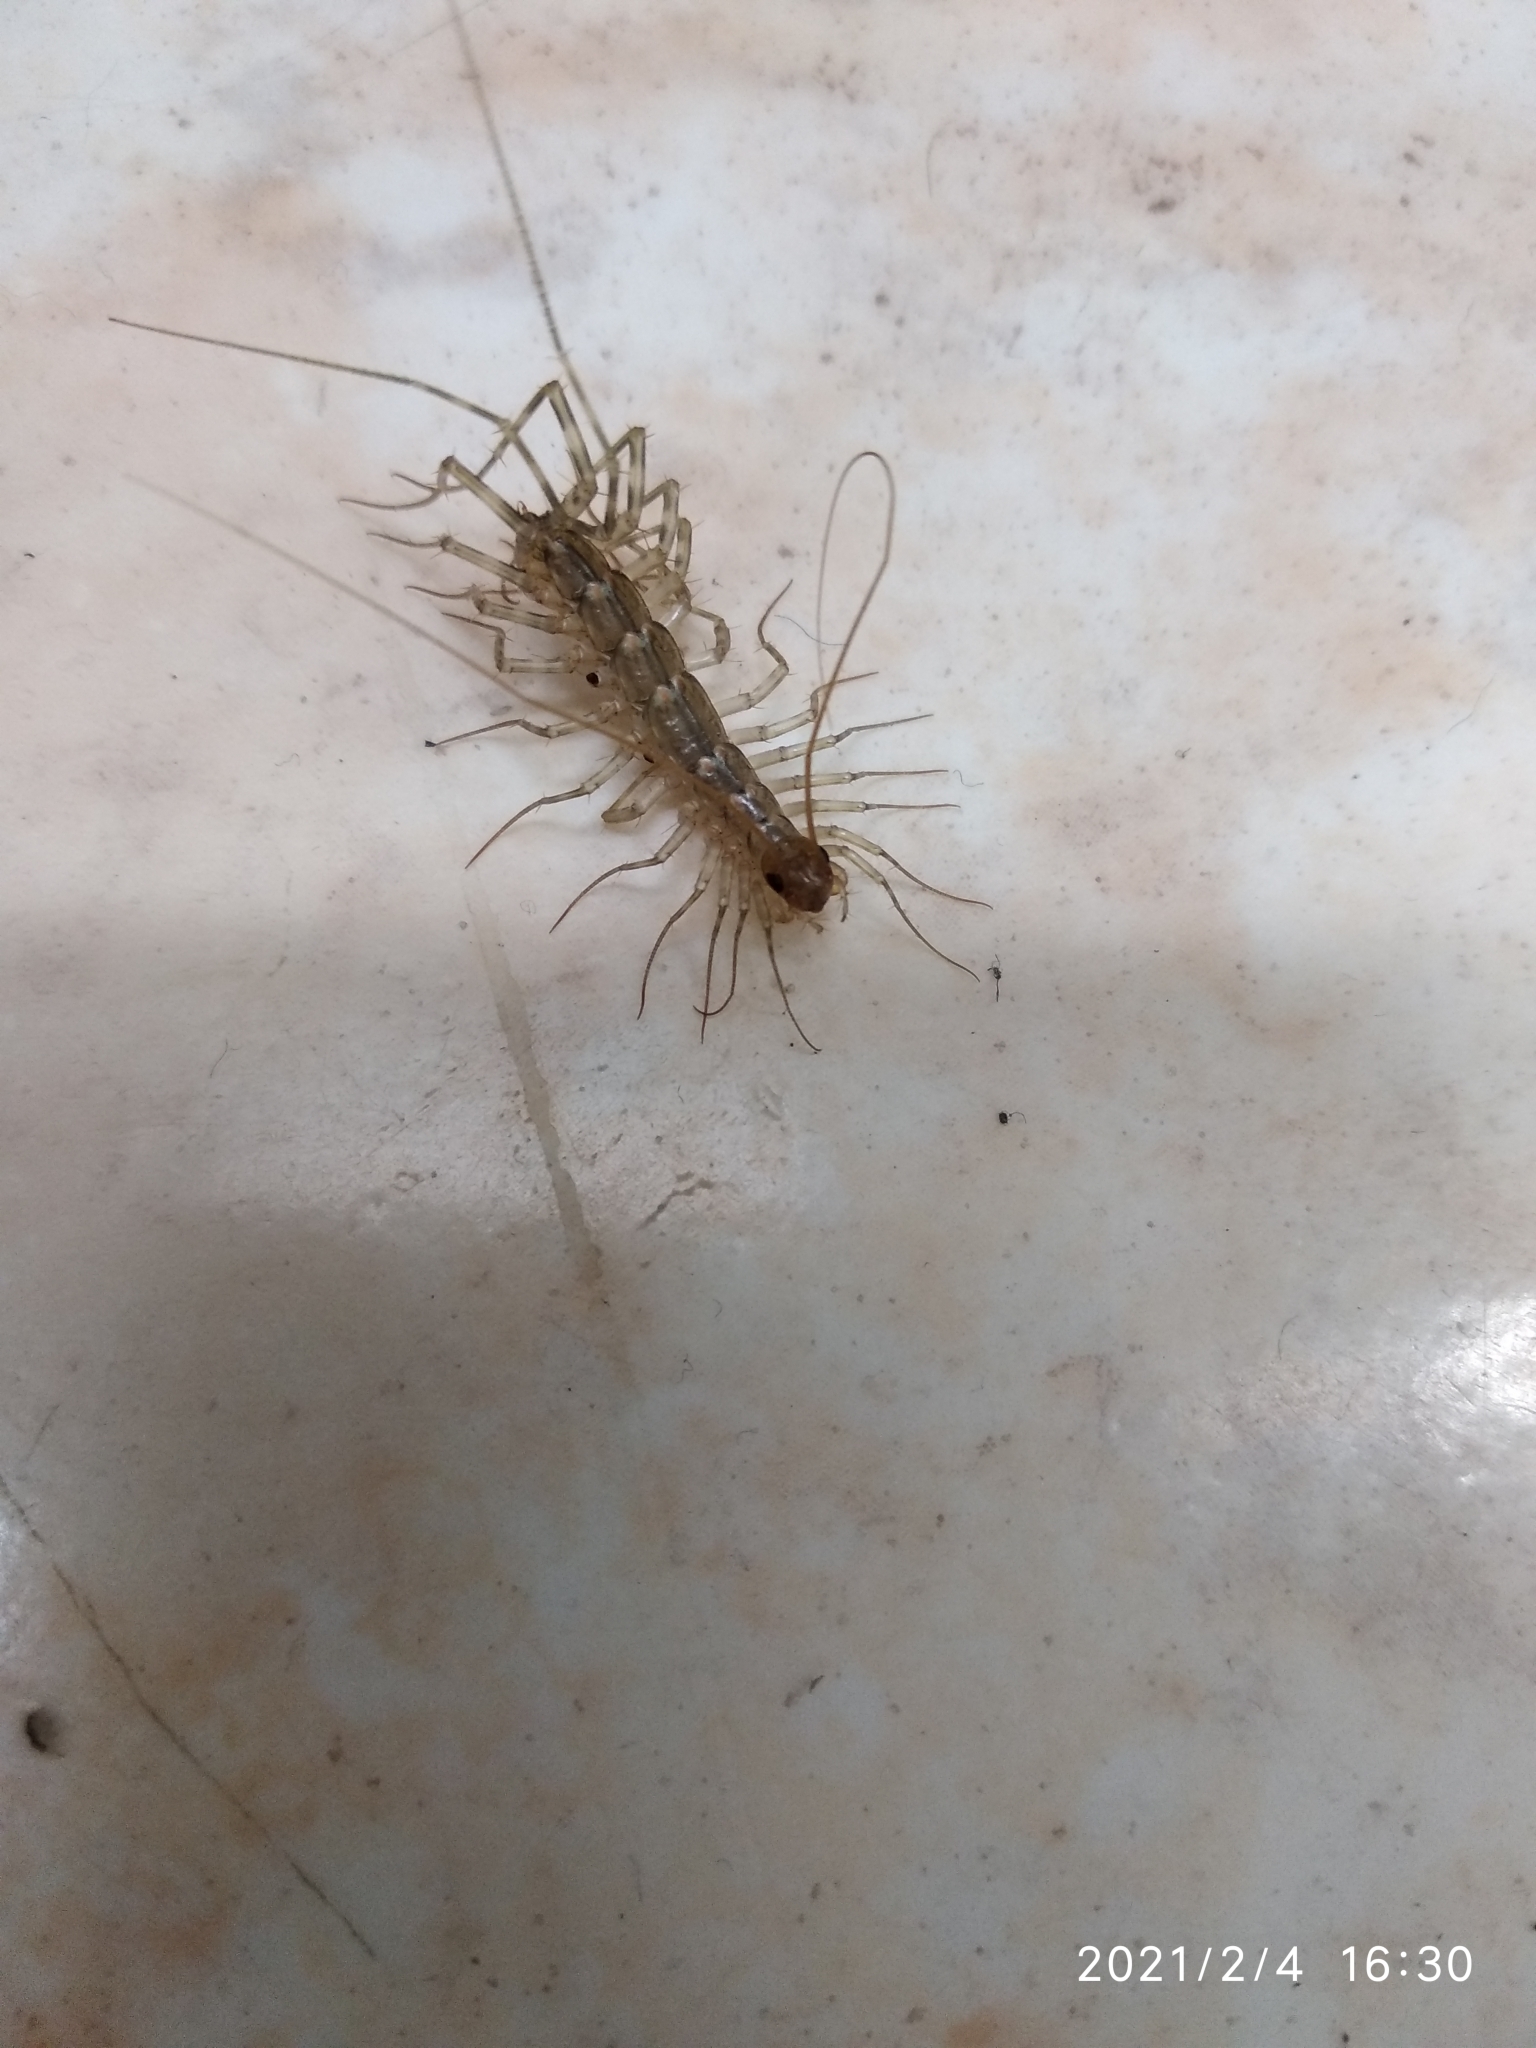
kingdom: Animalia
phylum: Arthropoda
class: Chilopoda
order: Scutigeromorpha
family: Scutigeridae
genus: Scutigera
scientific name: Scutigera coleoptrata
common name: House centipede
